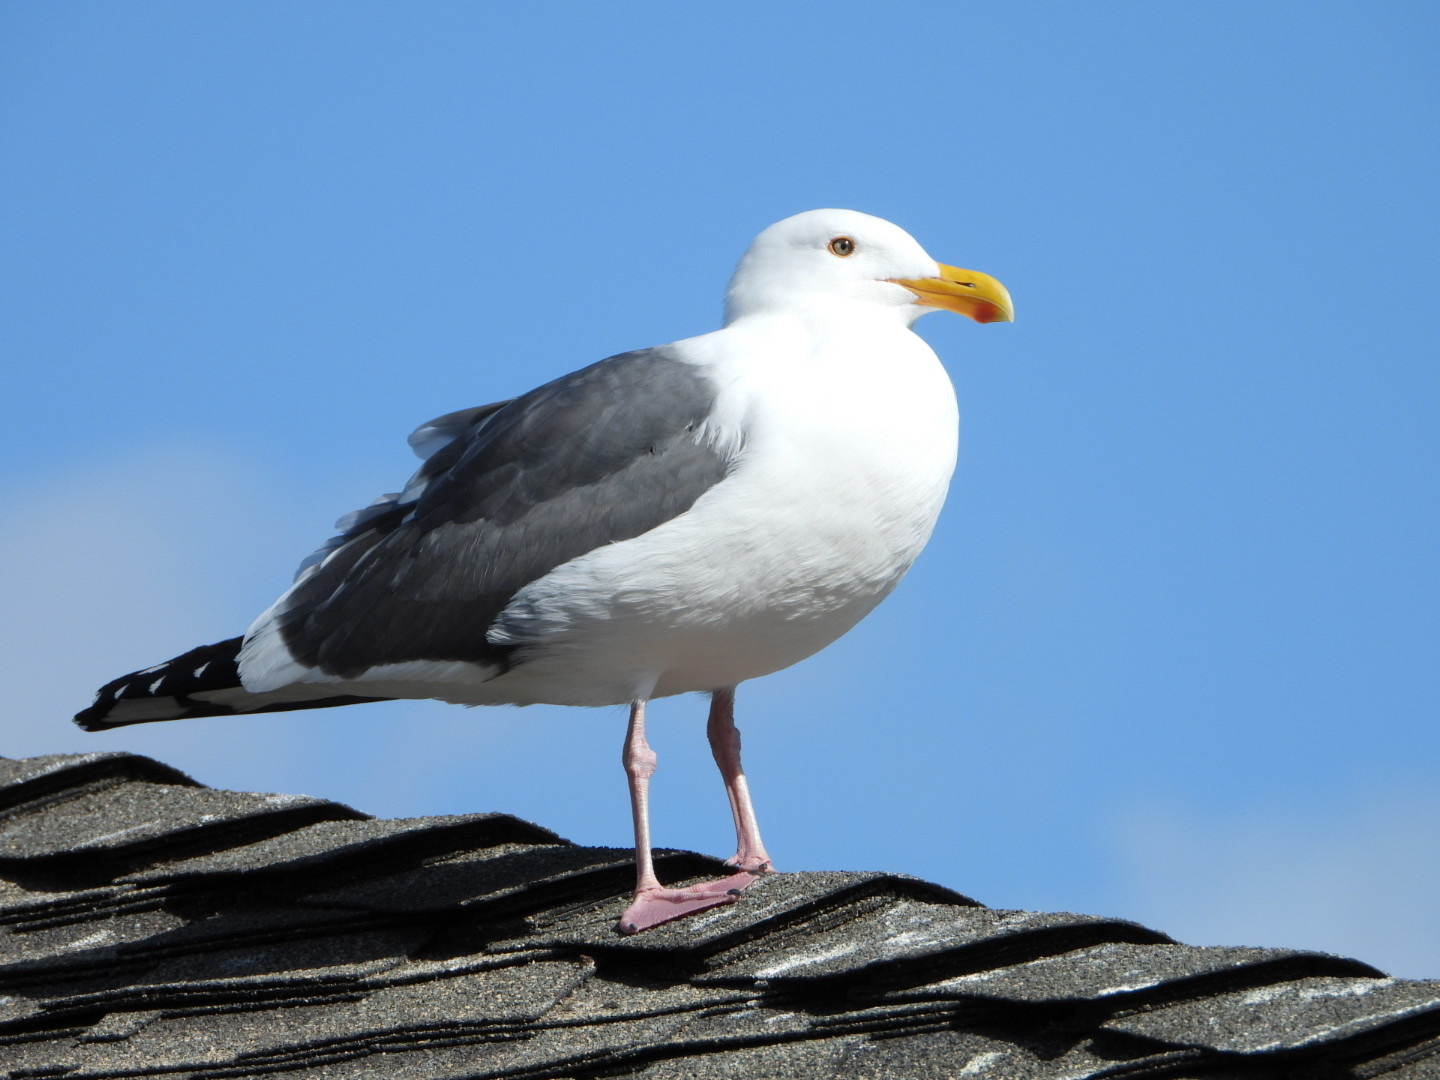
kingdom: Animalia
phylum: Chordata
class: Aves
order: Charadriiformes
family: Laridae
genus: Larus
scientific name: Larus occidentalis
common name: Western gull
